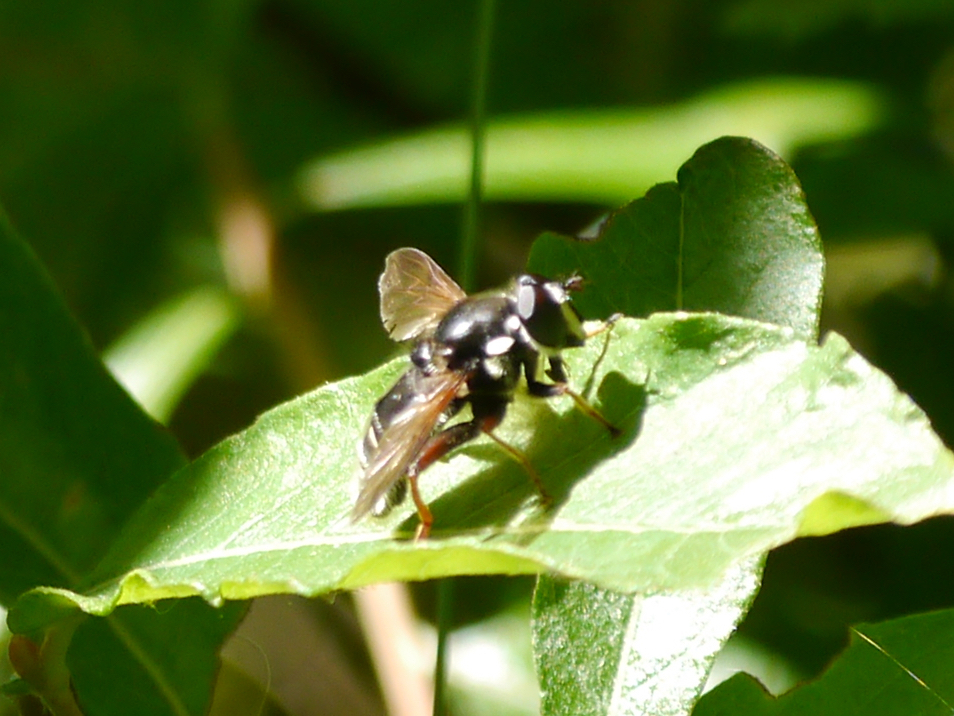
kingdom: Animalia
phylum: Arthropoda
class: Insecta
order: Diptera
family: Syrphidae
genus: Sericomyia
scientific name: Sericomyia militaris
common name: Narrow-banded pond fly
